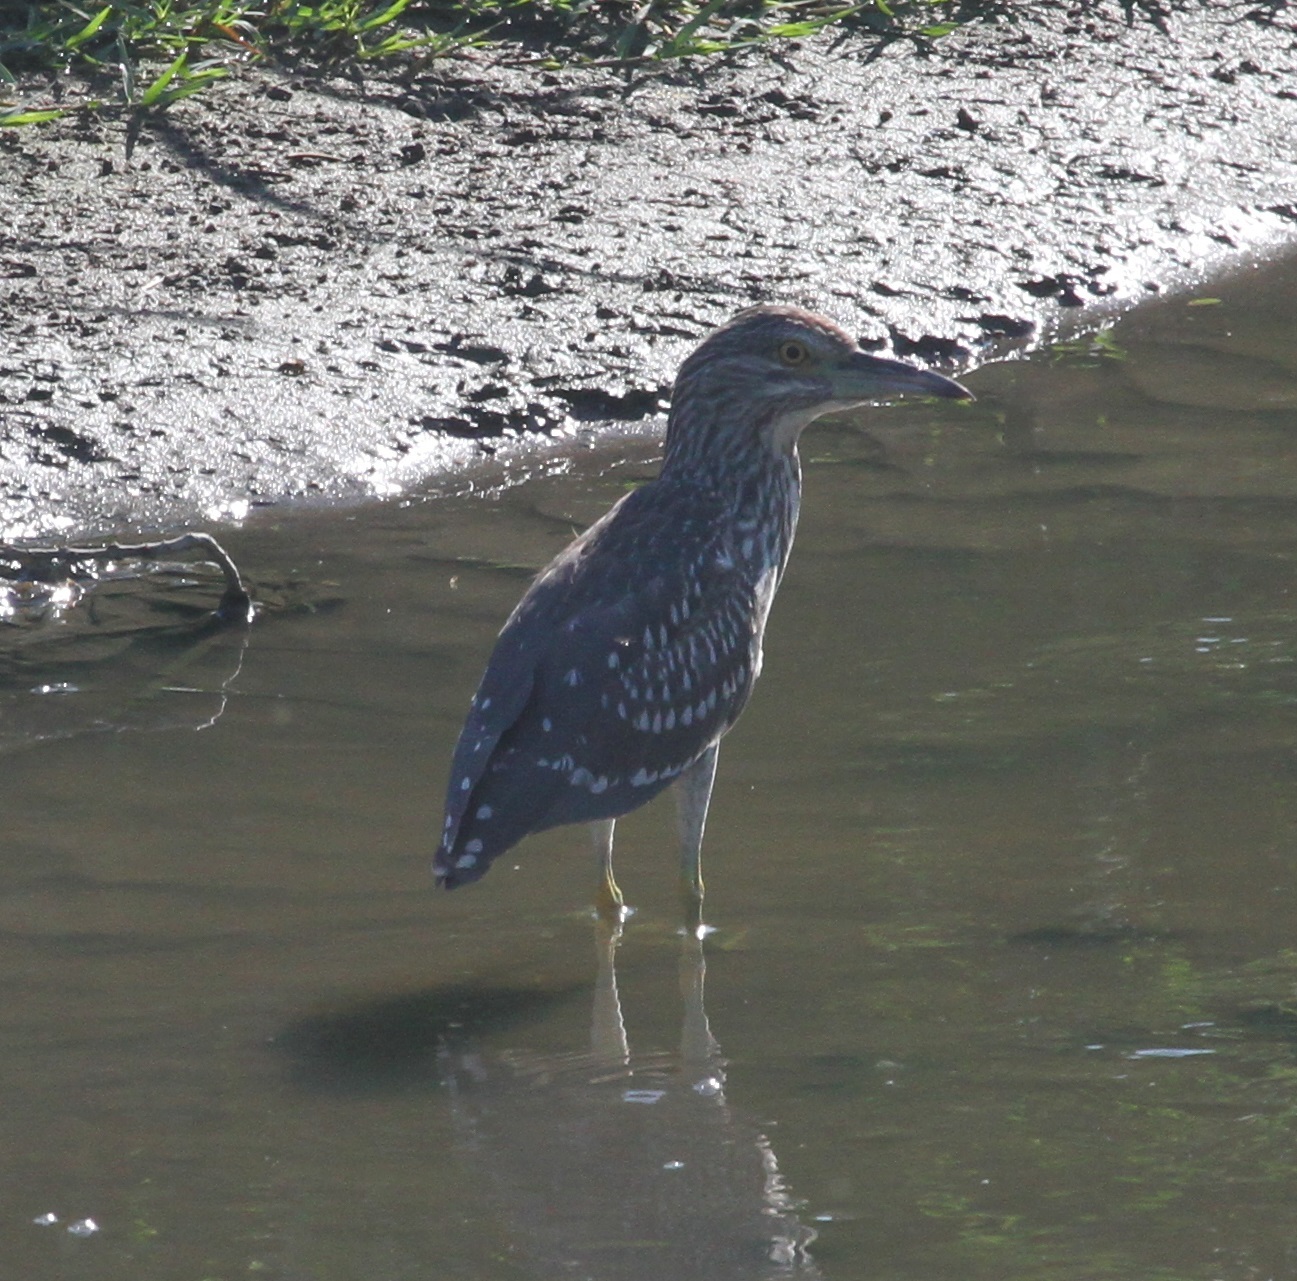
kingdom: Animalia
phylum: Chordata
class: Aves
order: Pelecaniformes
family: Ardeidae
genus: Nycticorax
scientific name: Nycticorax nycticorax
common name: Black-crowned night heron
